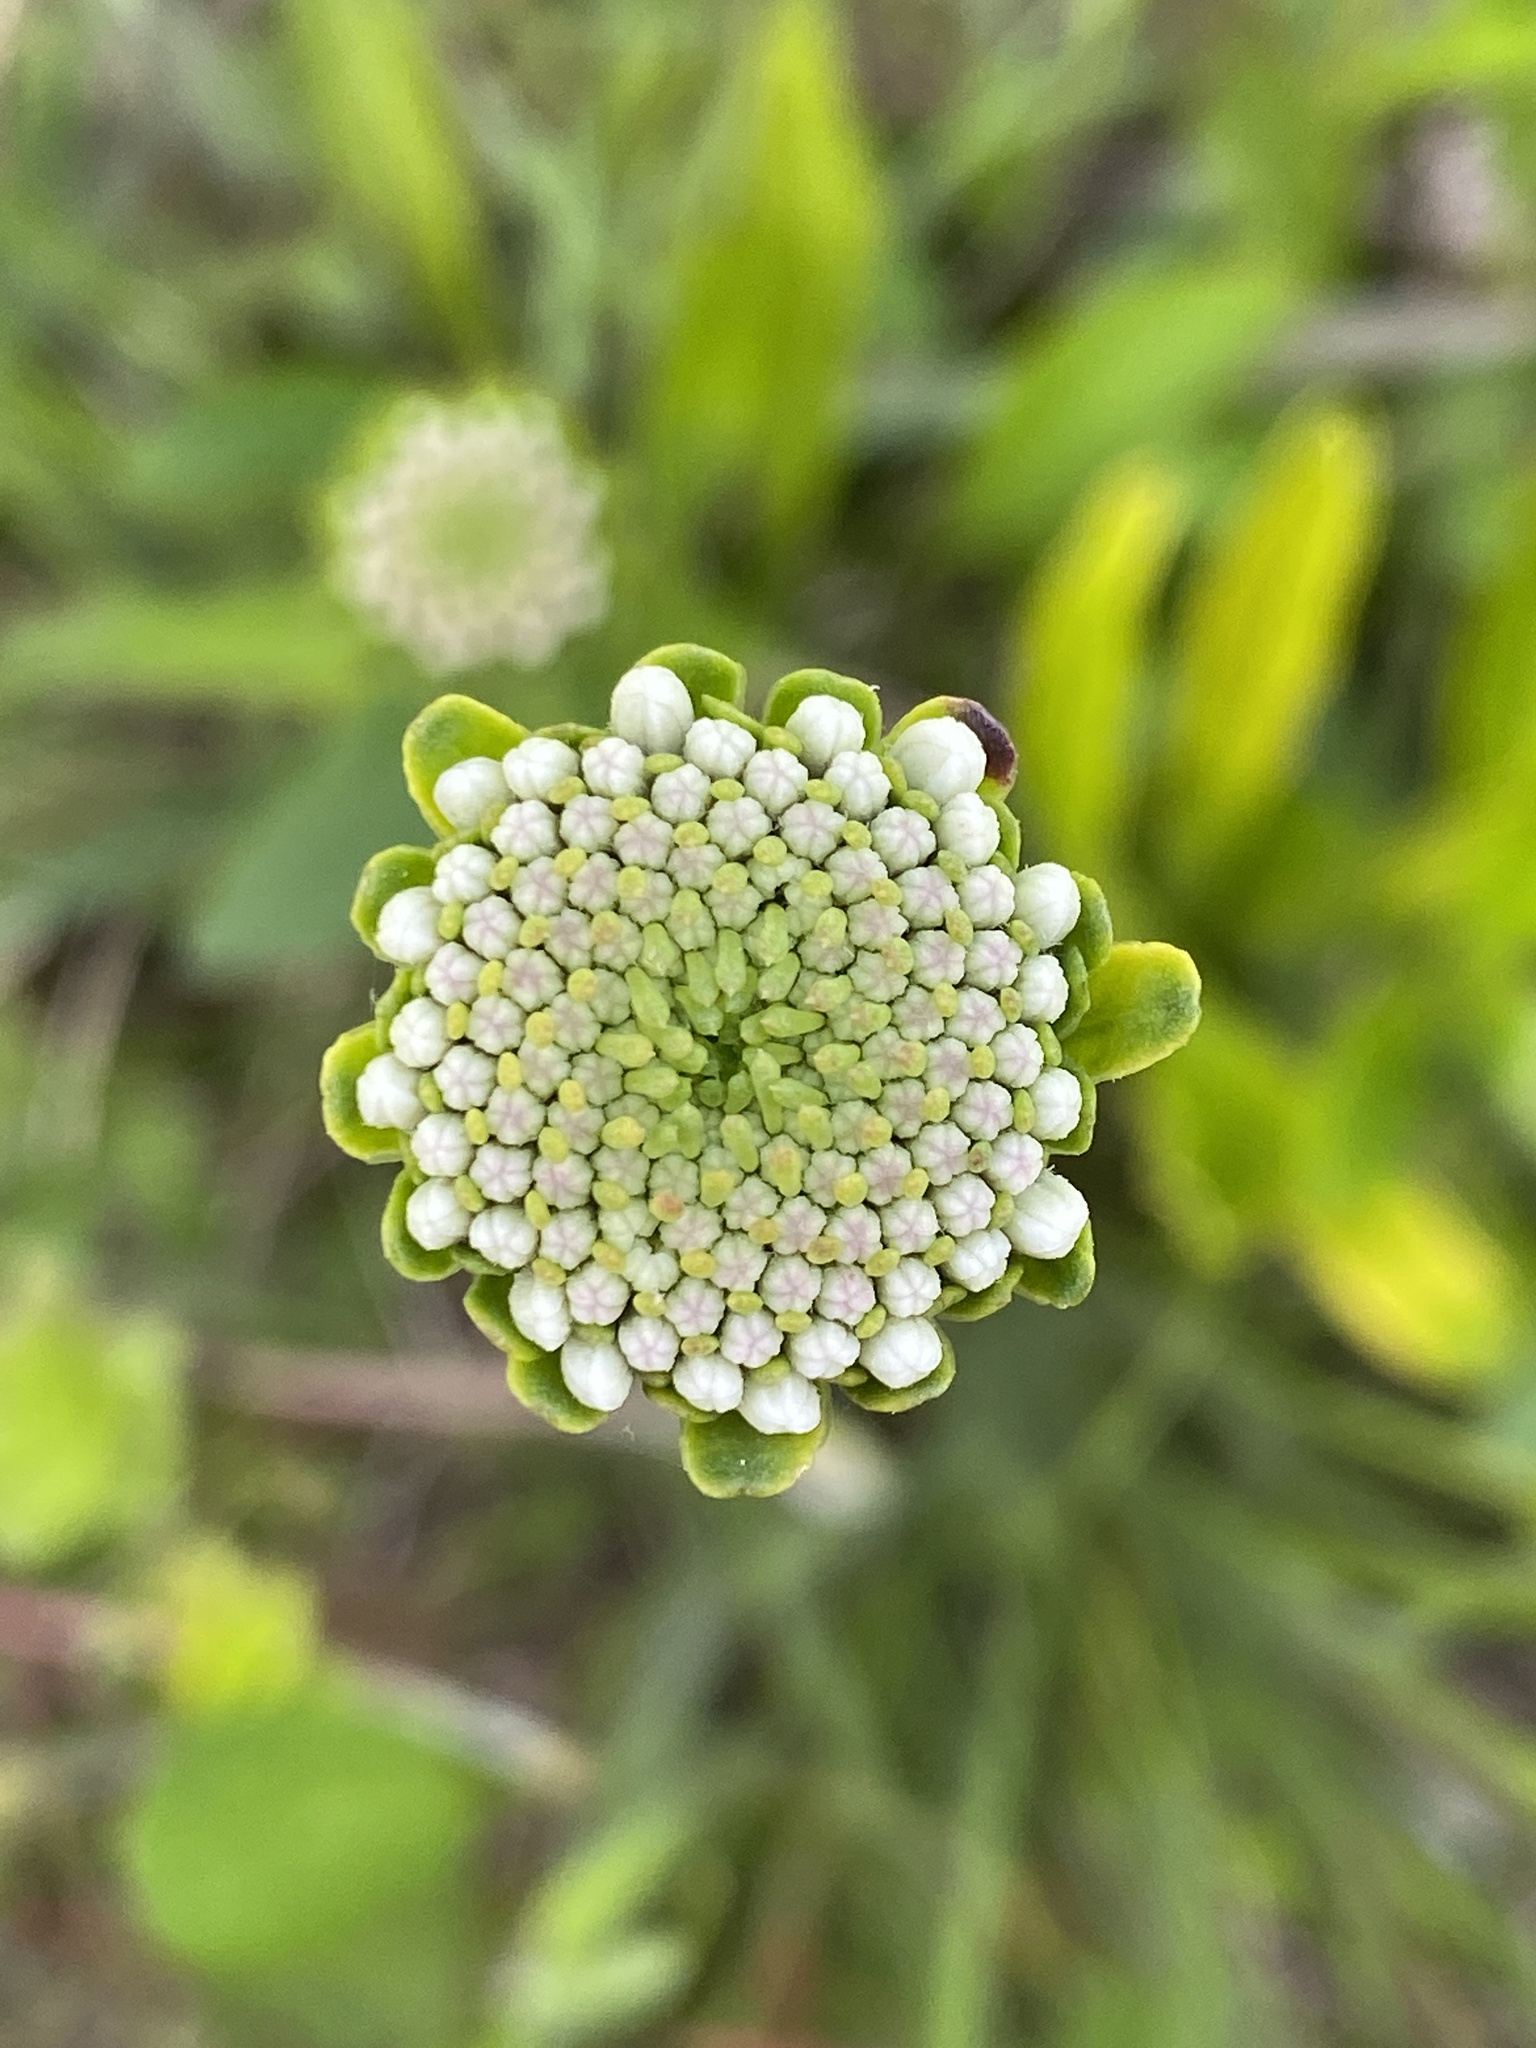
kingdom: Plantae
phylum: Tracheophyta
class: Magnoliopsida
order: Asterales
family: Asteraceae
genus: Marshallia
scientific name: Marshallia obovata
